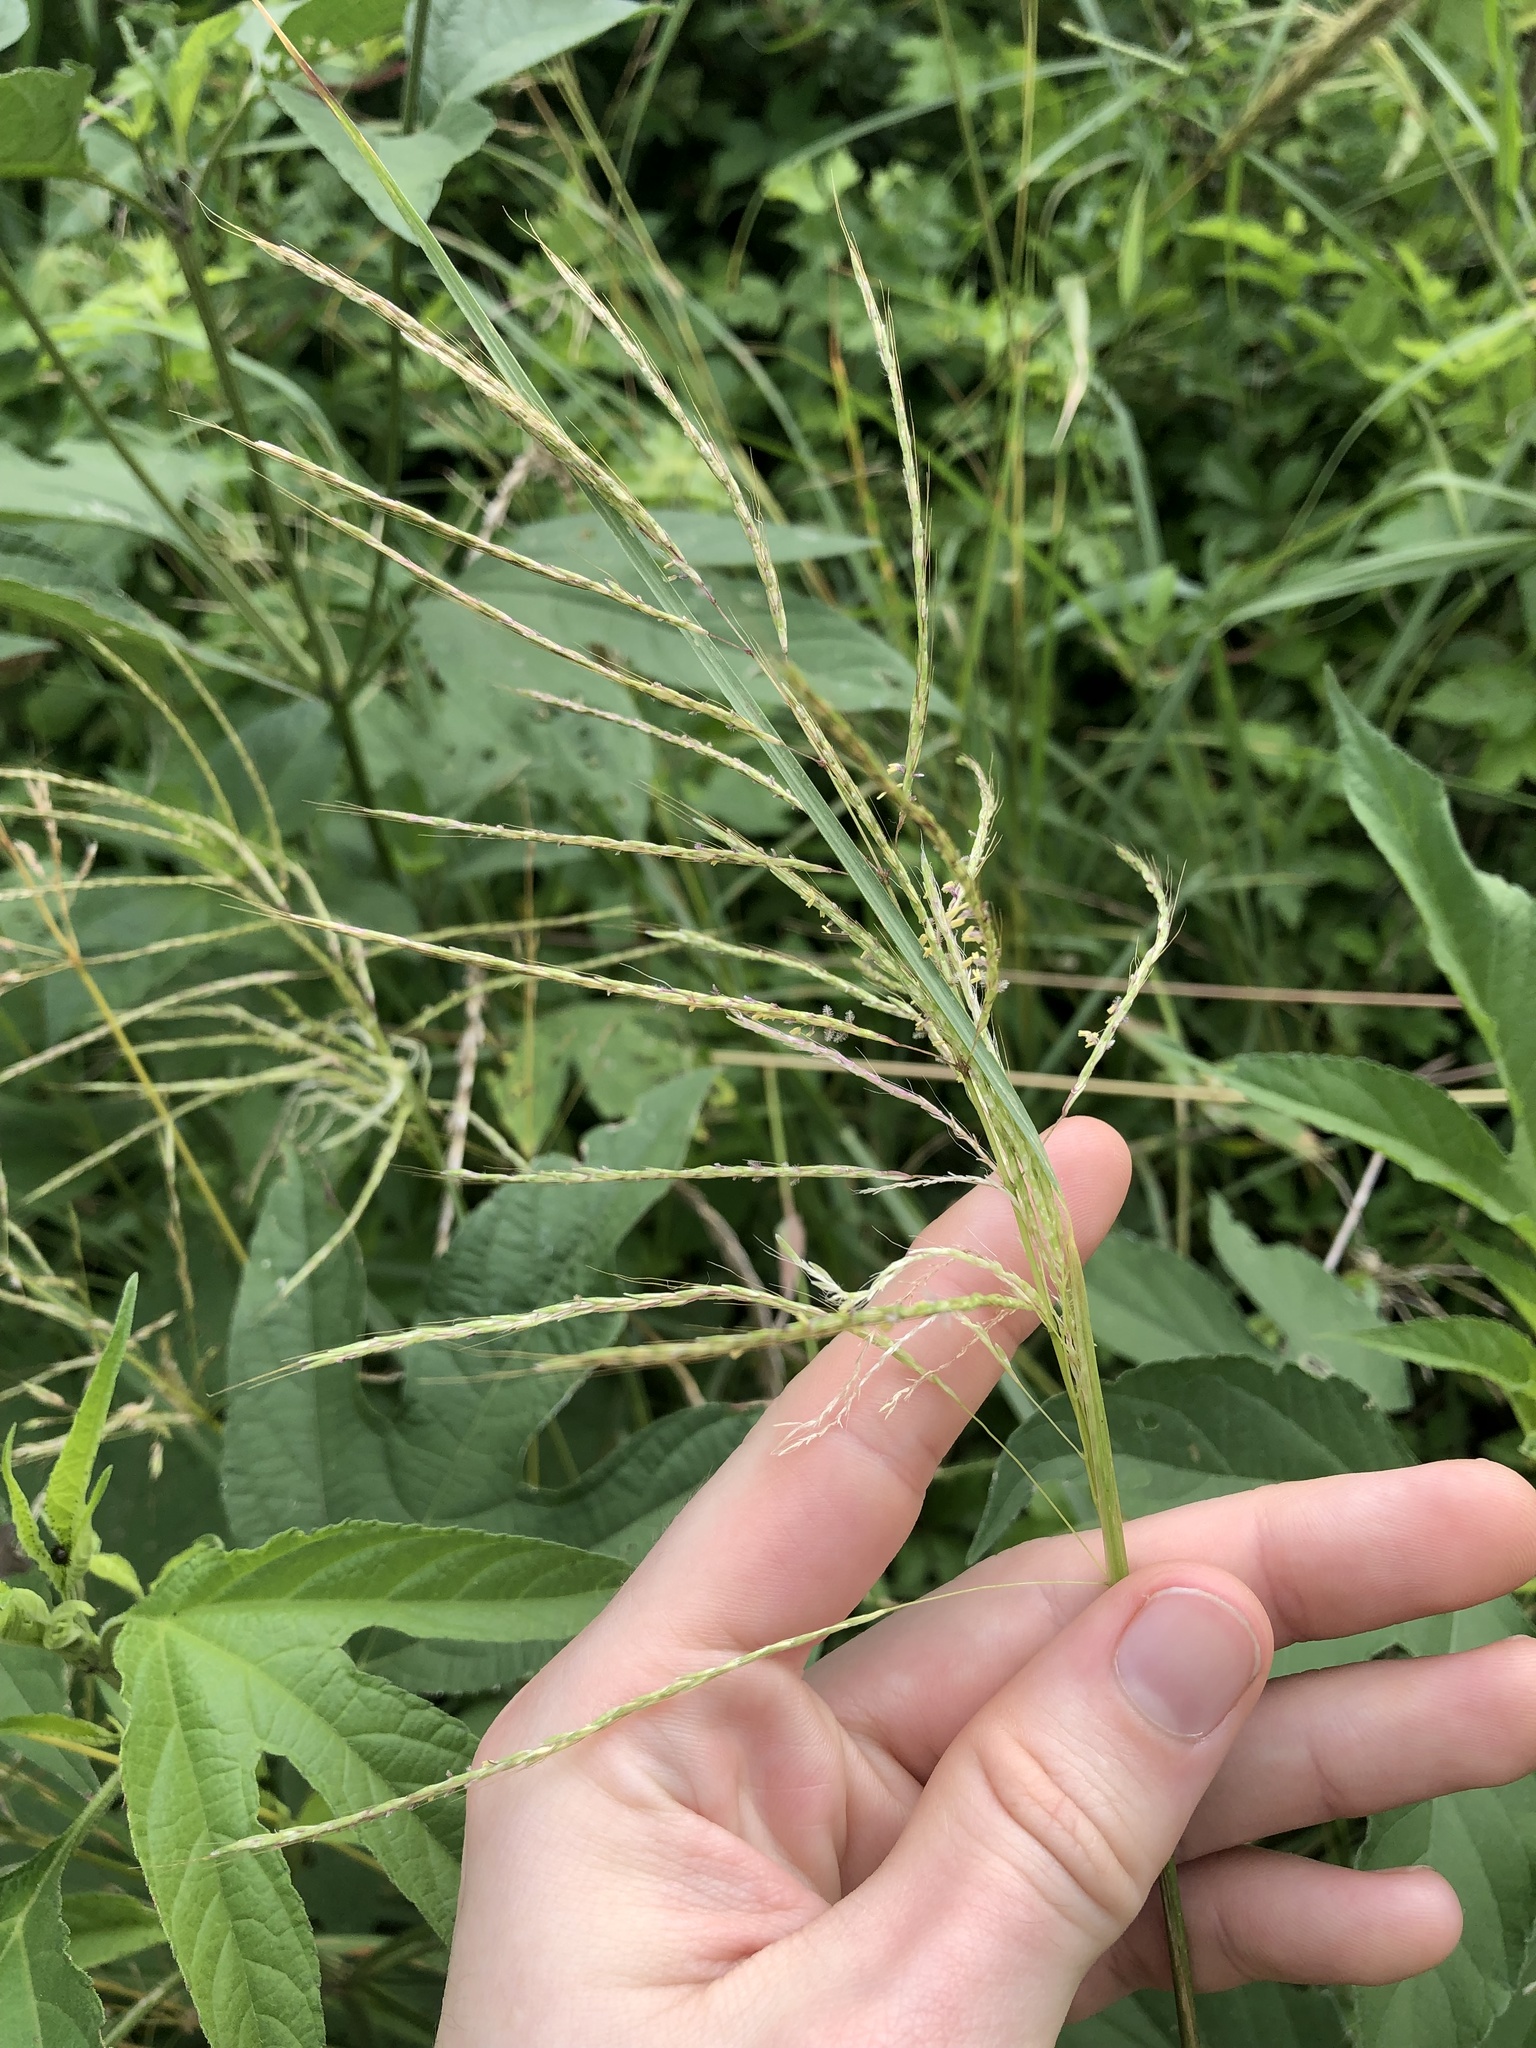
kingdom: Plantae
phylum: Tracheophyta
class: Liliopsida
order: Poales
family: Poaceae
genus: Bothriochloa
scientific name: Bothriochloa bladhii
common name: Caucasian bluestem
